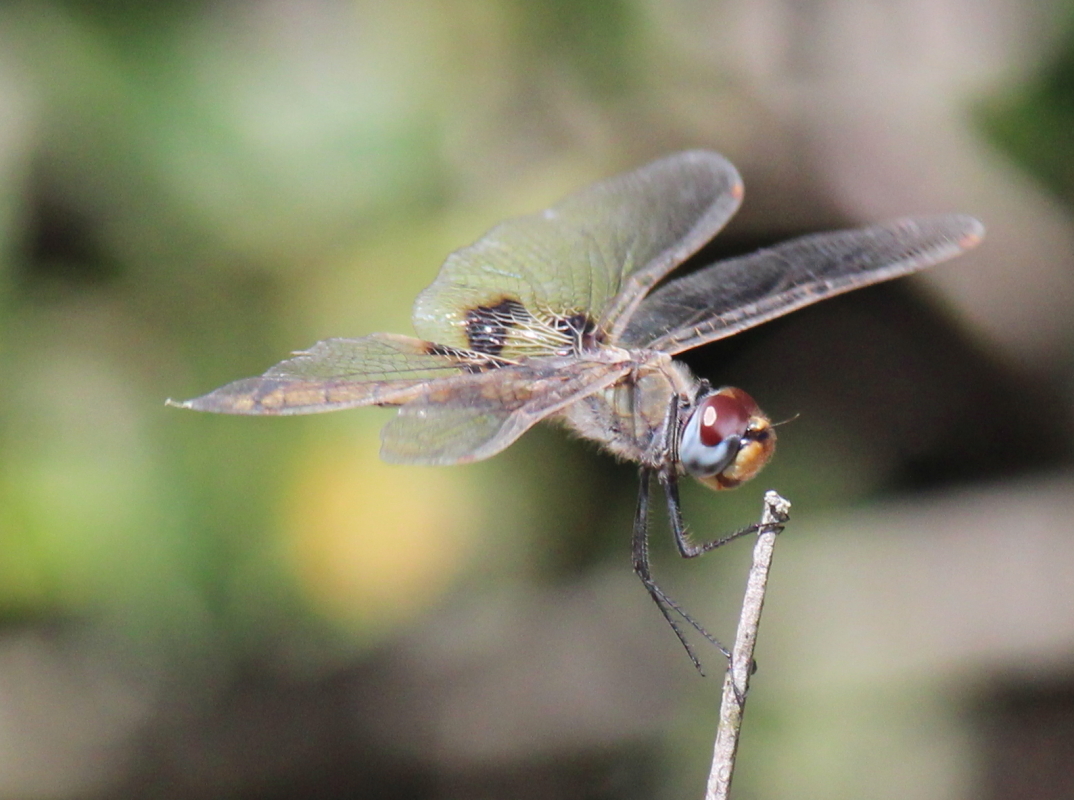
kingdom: Animalia
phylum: Arthropoda
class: Insecta
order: Odonata
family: Libellulidae
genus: Tramea
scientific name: Tramea basilaris
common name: Keyhole glider
